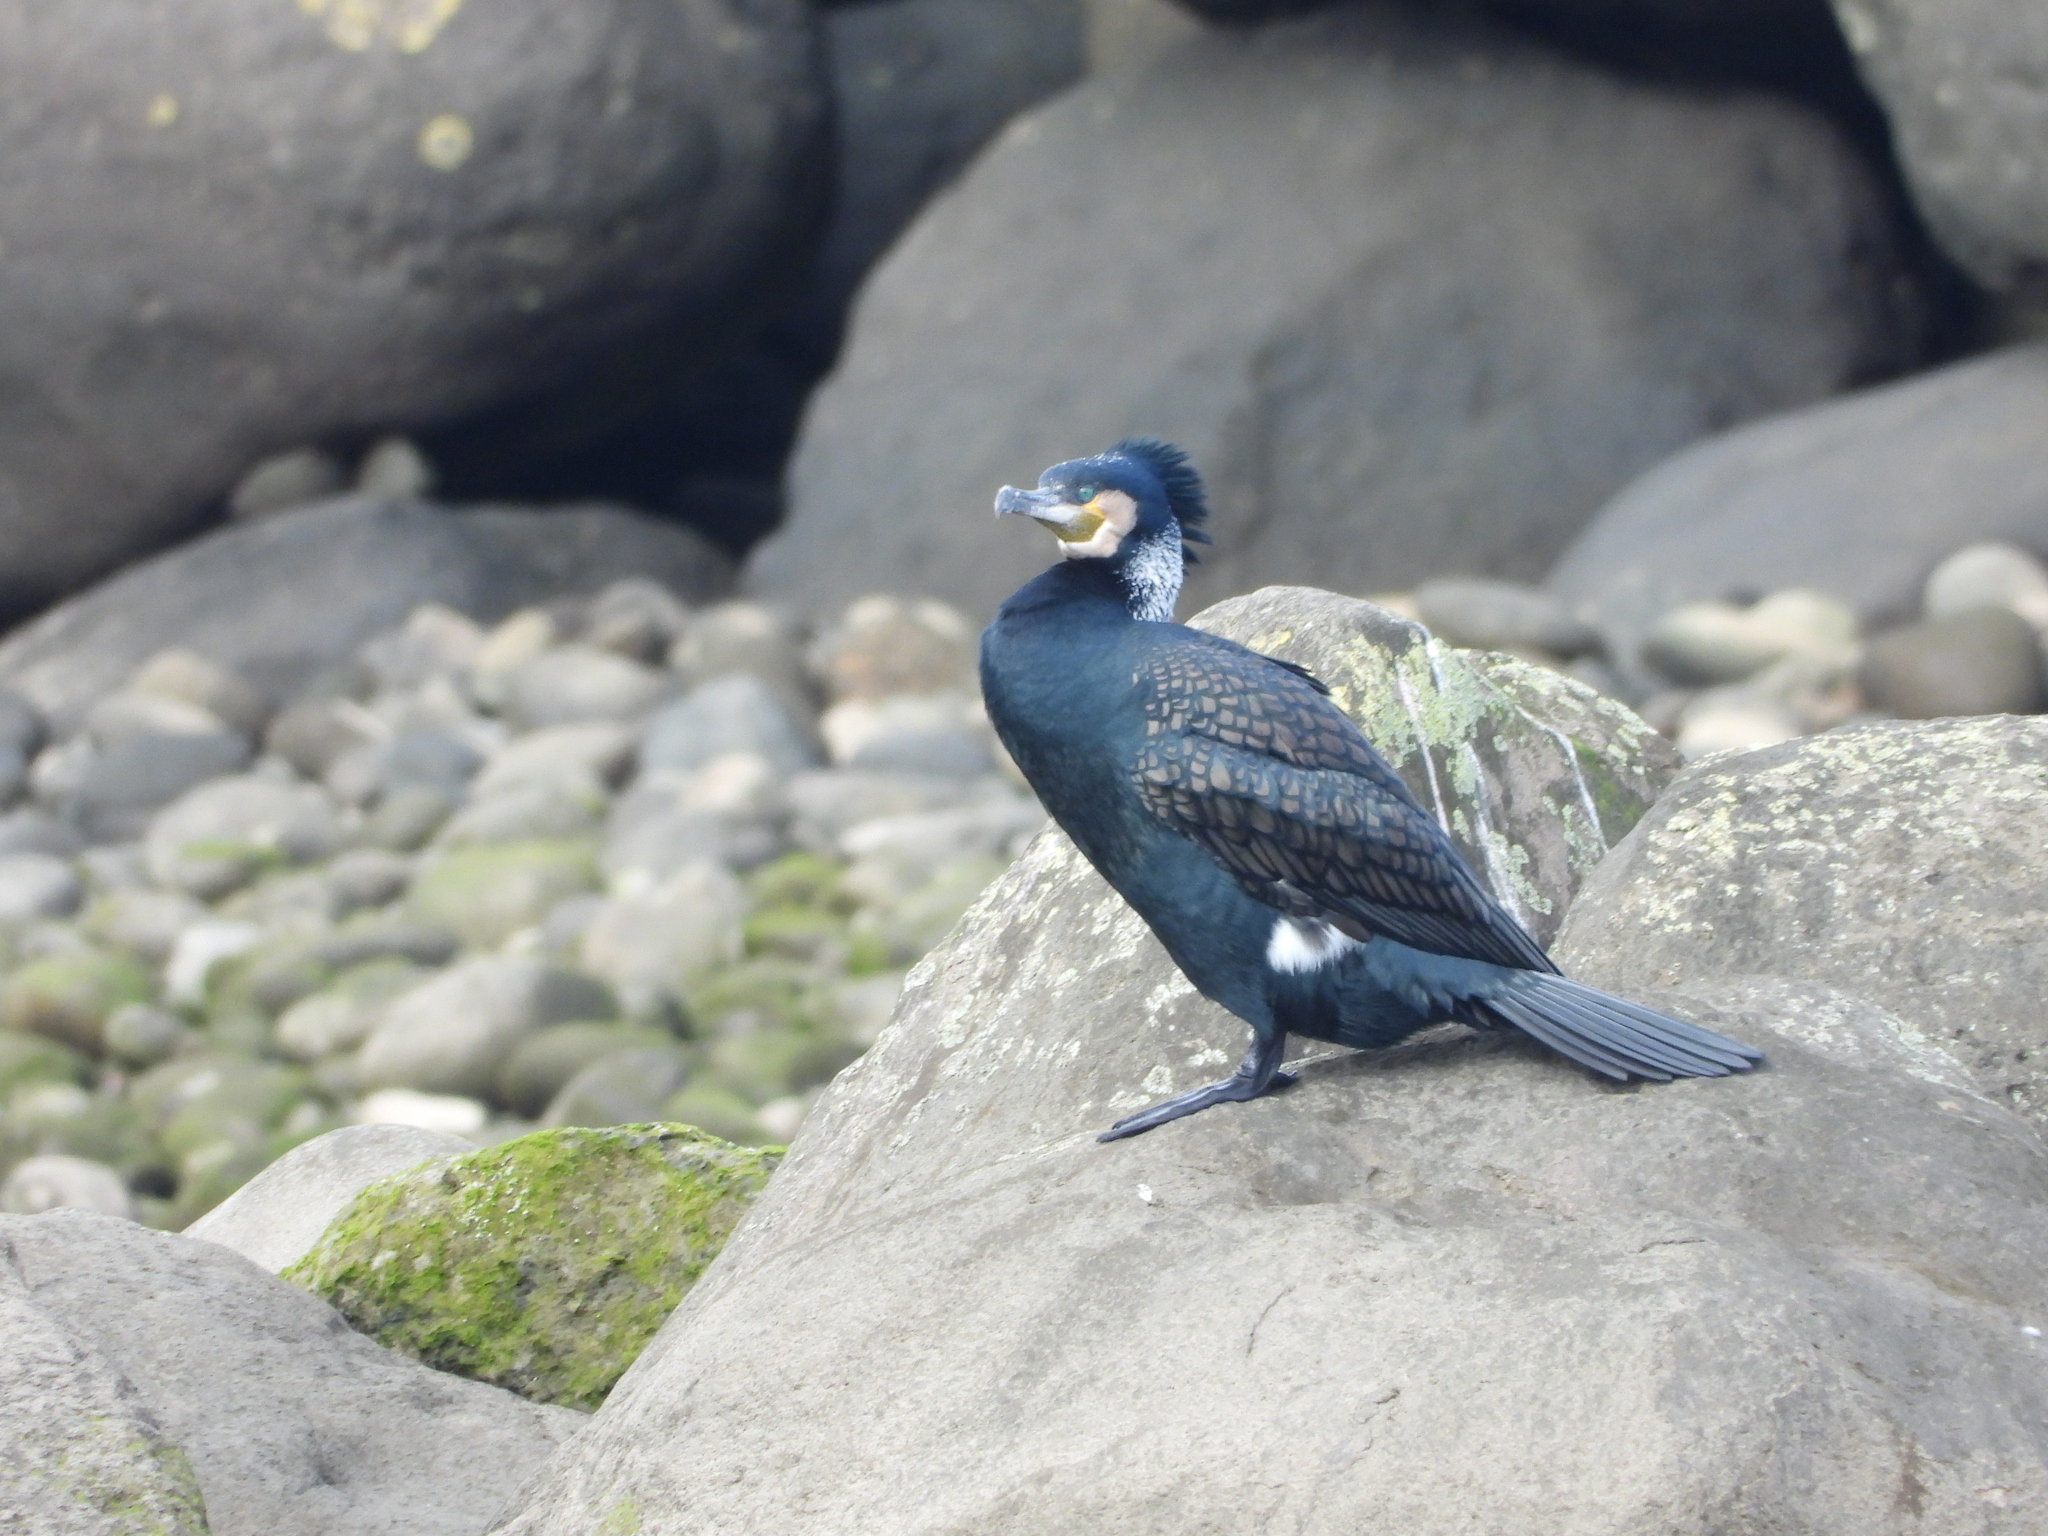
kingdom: Animalia
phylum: Chordata
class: Aves
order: Suliformes
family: Phalacrocoracidae
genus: Phalacrocorax
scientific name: Phalacrocorax carbo
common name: Great cormorant
